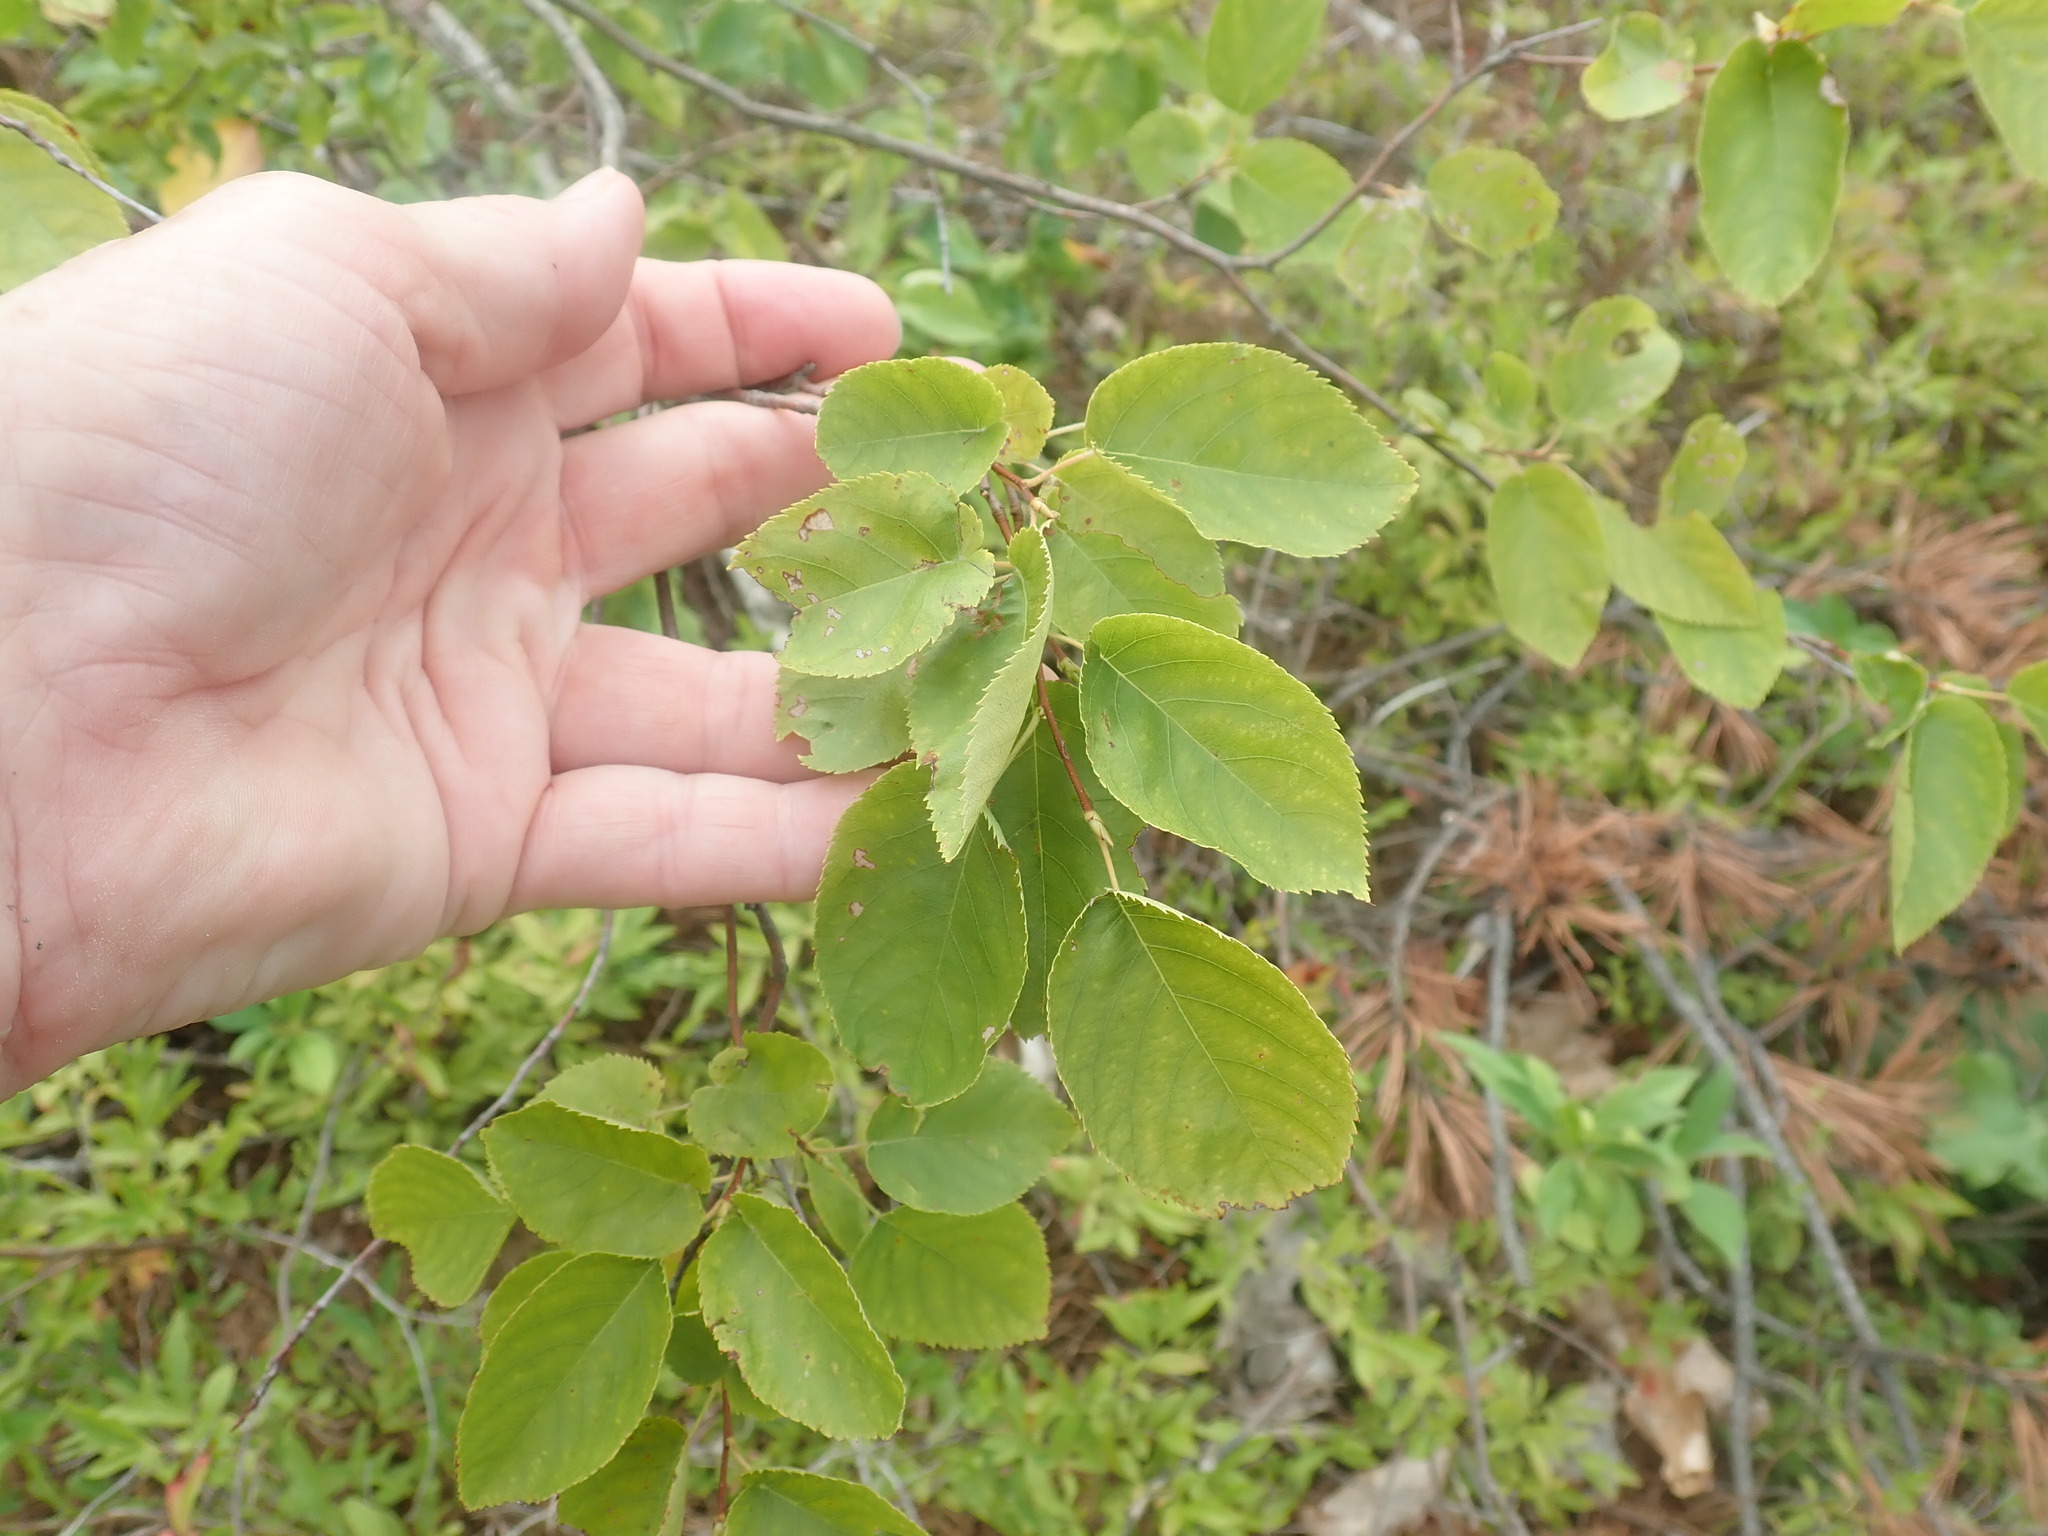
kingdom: Plantae
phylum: Tracheophyta
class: Magnoliopsida
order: Rosales
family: Rosaceae
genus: Amelanchier
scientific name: Amelanchier
